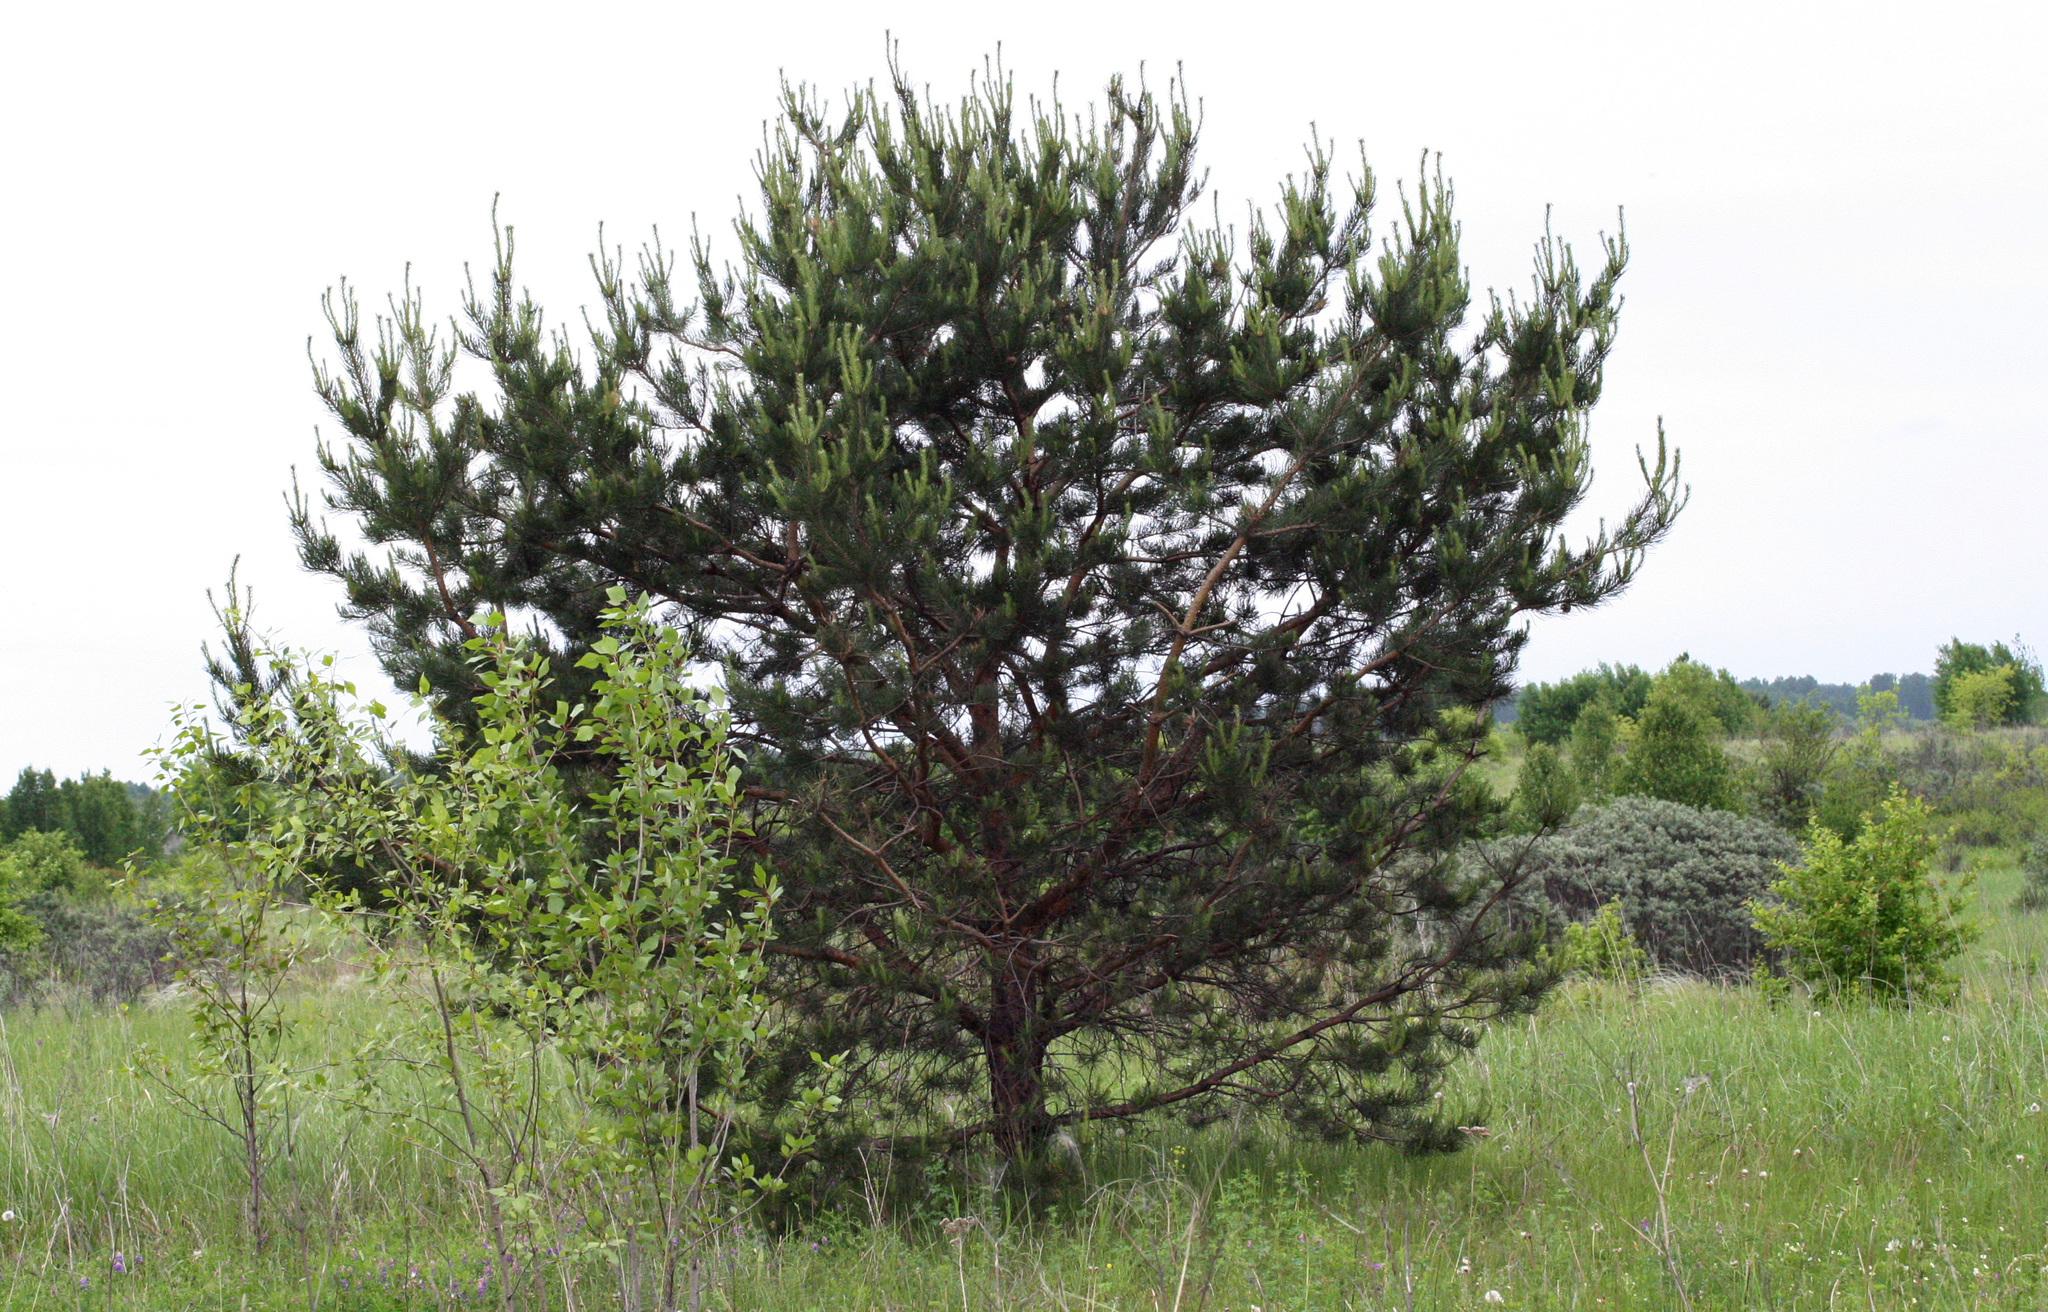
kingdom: Plantae
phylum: Tracheophyta
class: Pinopsida
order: Pinales
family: Pinaceae
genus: Pinus
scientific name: Pinus sylvestris
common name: Scots pine
